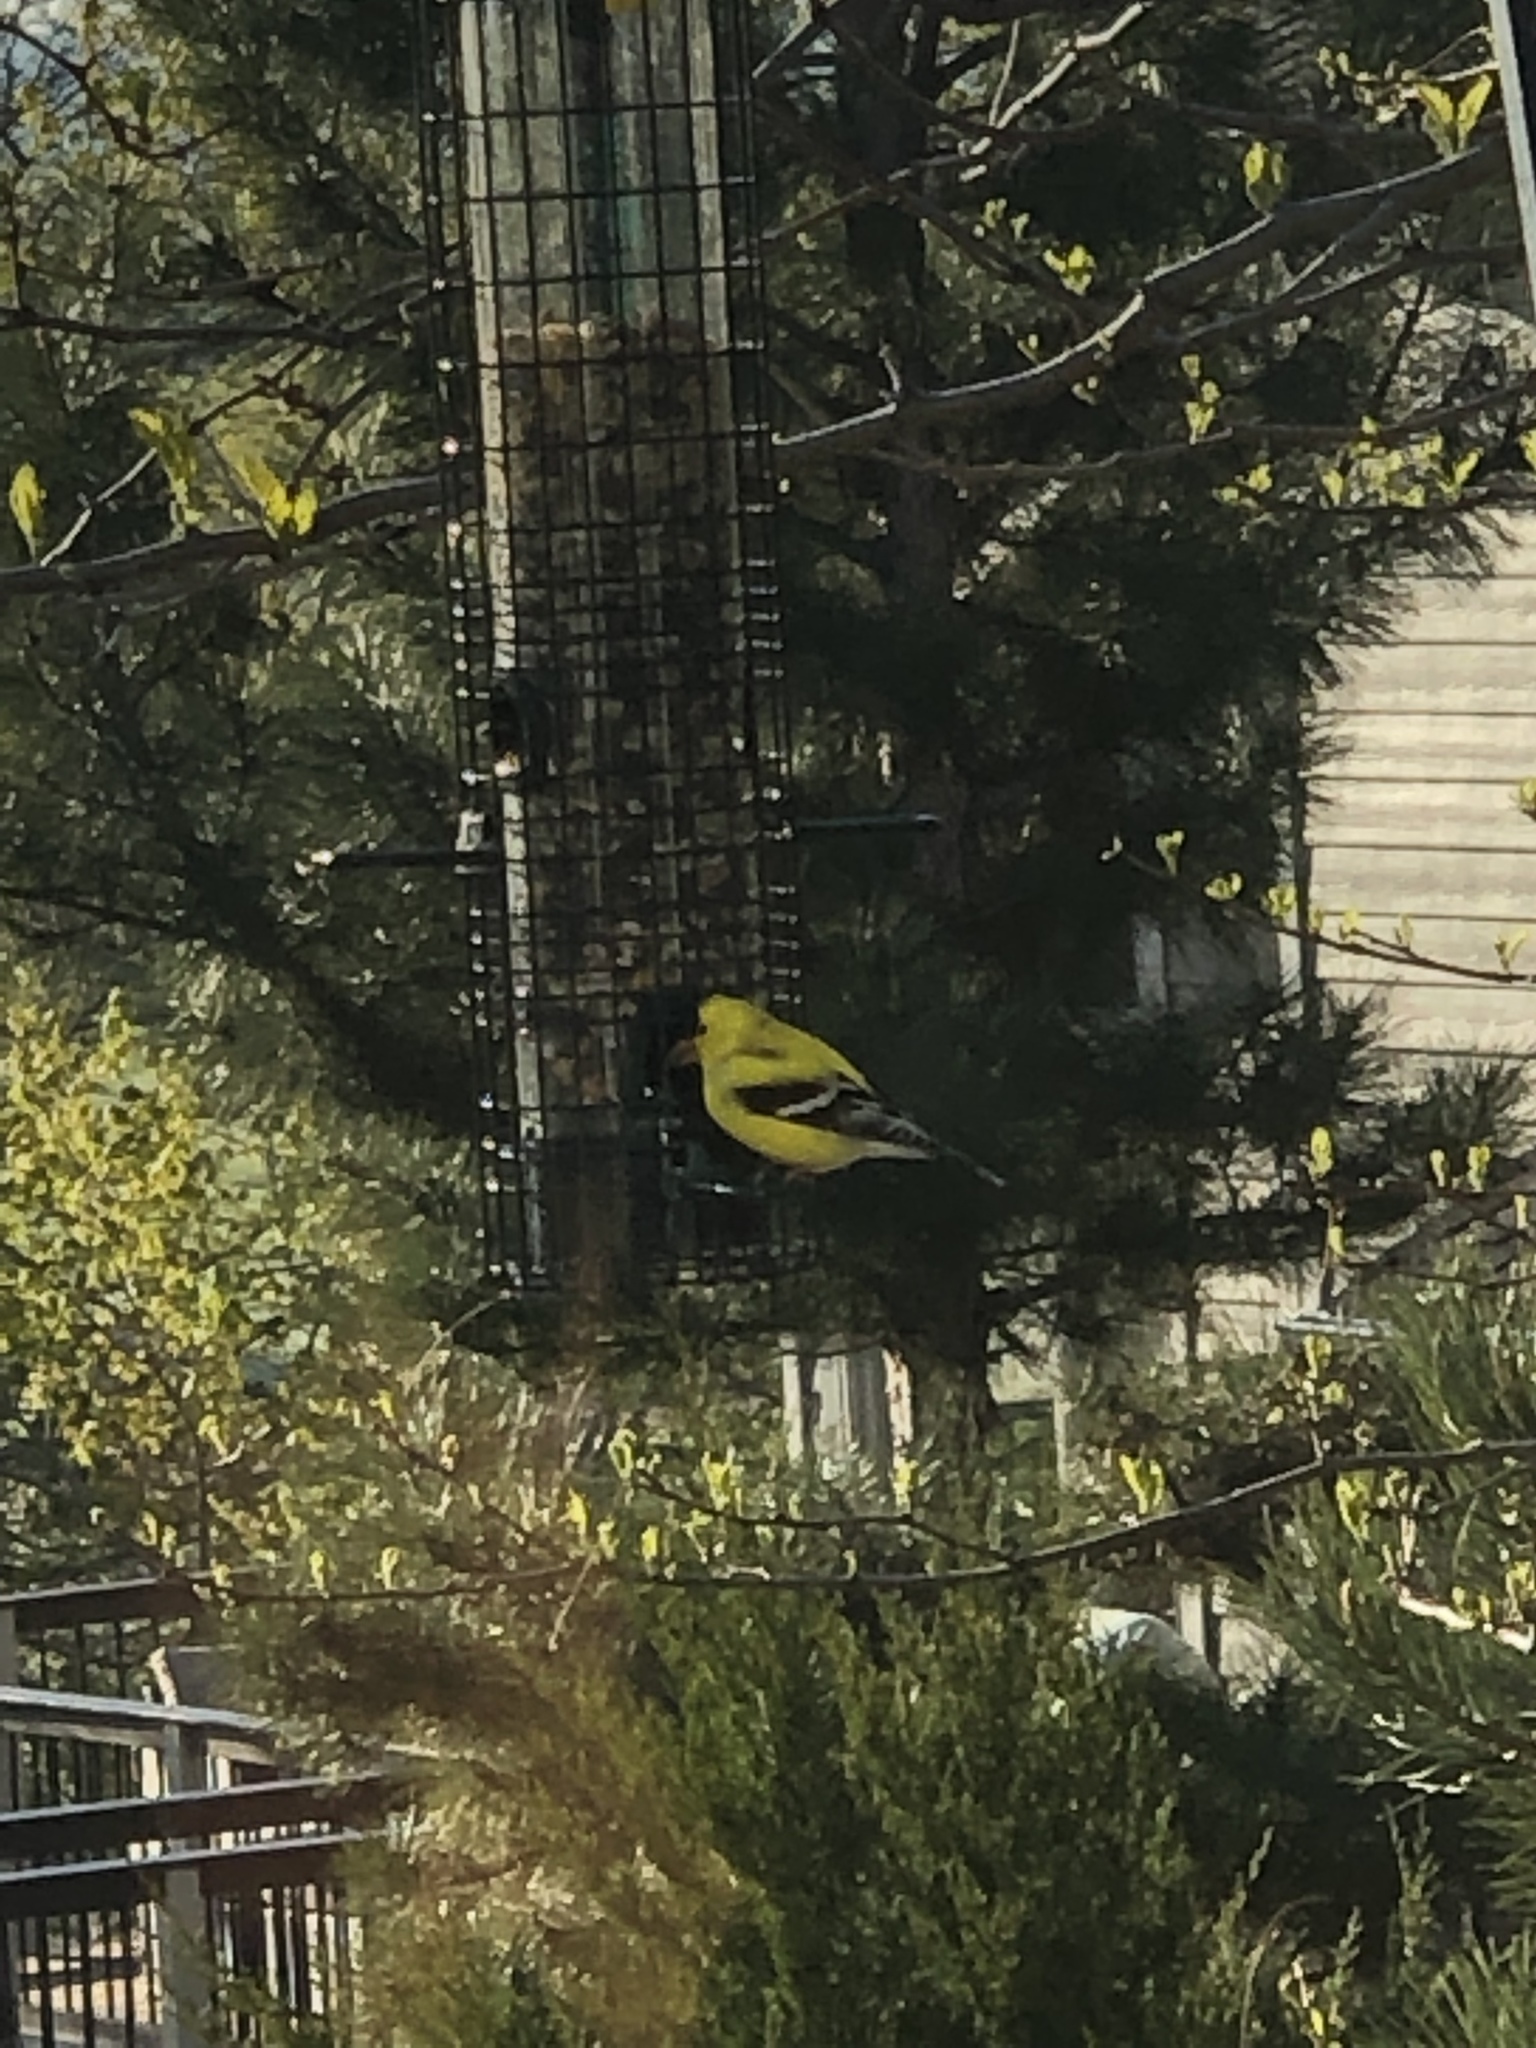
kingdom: Animalia
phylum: Chordata
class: Aves
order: Passeriformes
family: Fringillidae
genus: Spinus
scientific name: Spinus tristis
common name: American goldfinch
